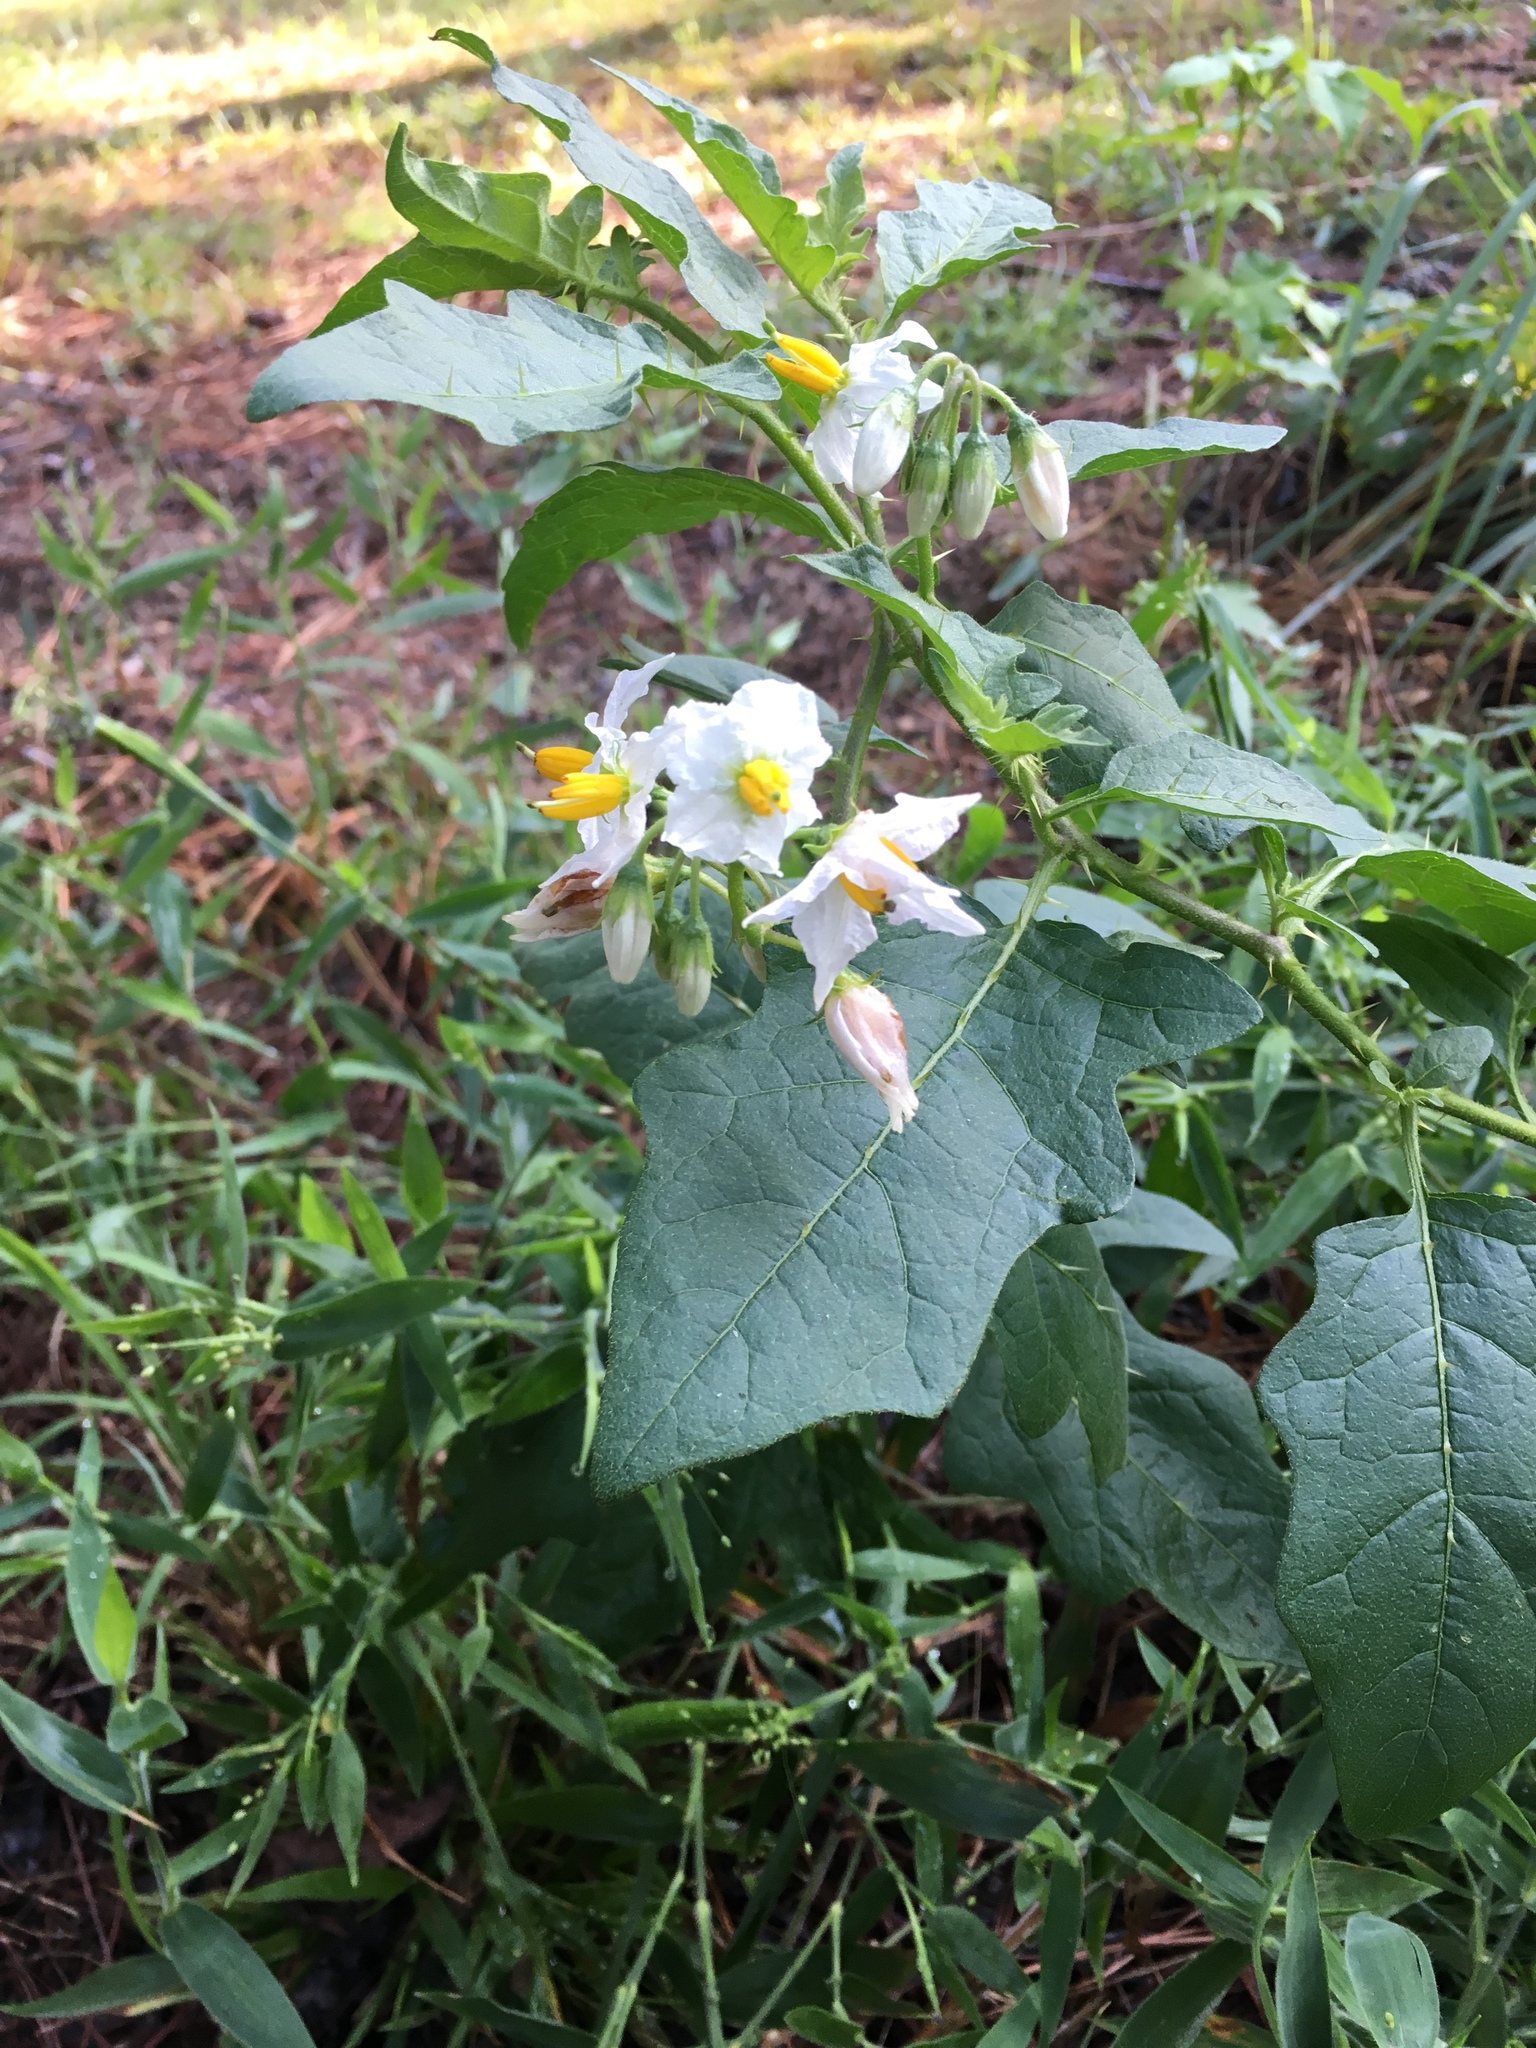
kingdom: Plantae
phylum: Tracheophyta
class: Magnoliopsida
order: Solanales
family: Solanaceae
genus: Solanum
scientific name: Solanum carolinense
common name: Horse-nettle
